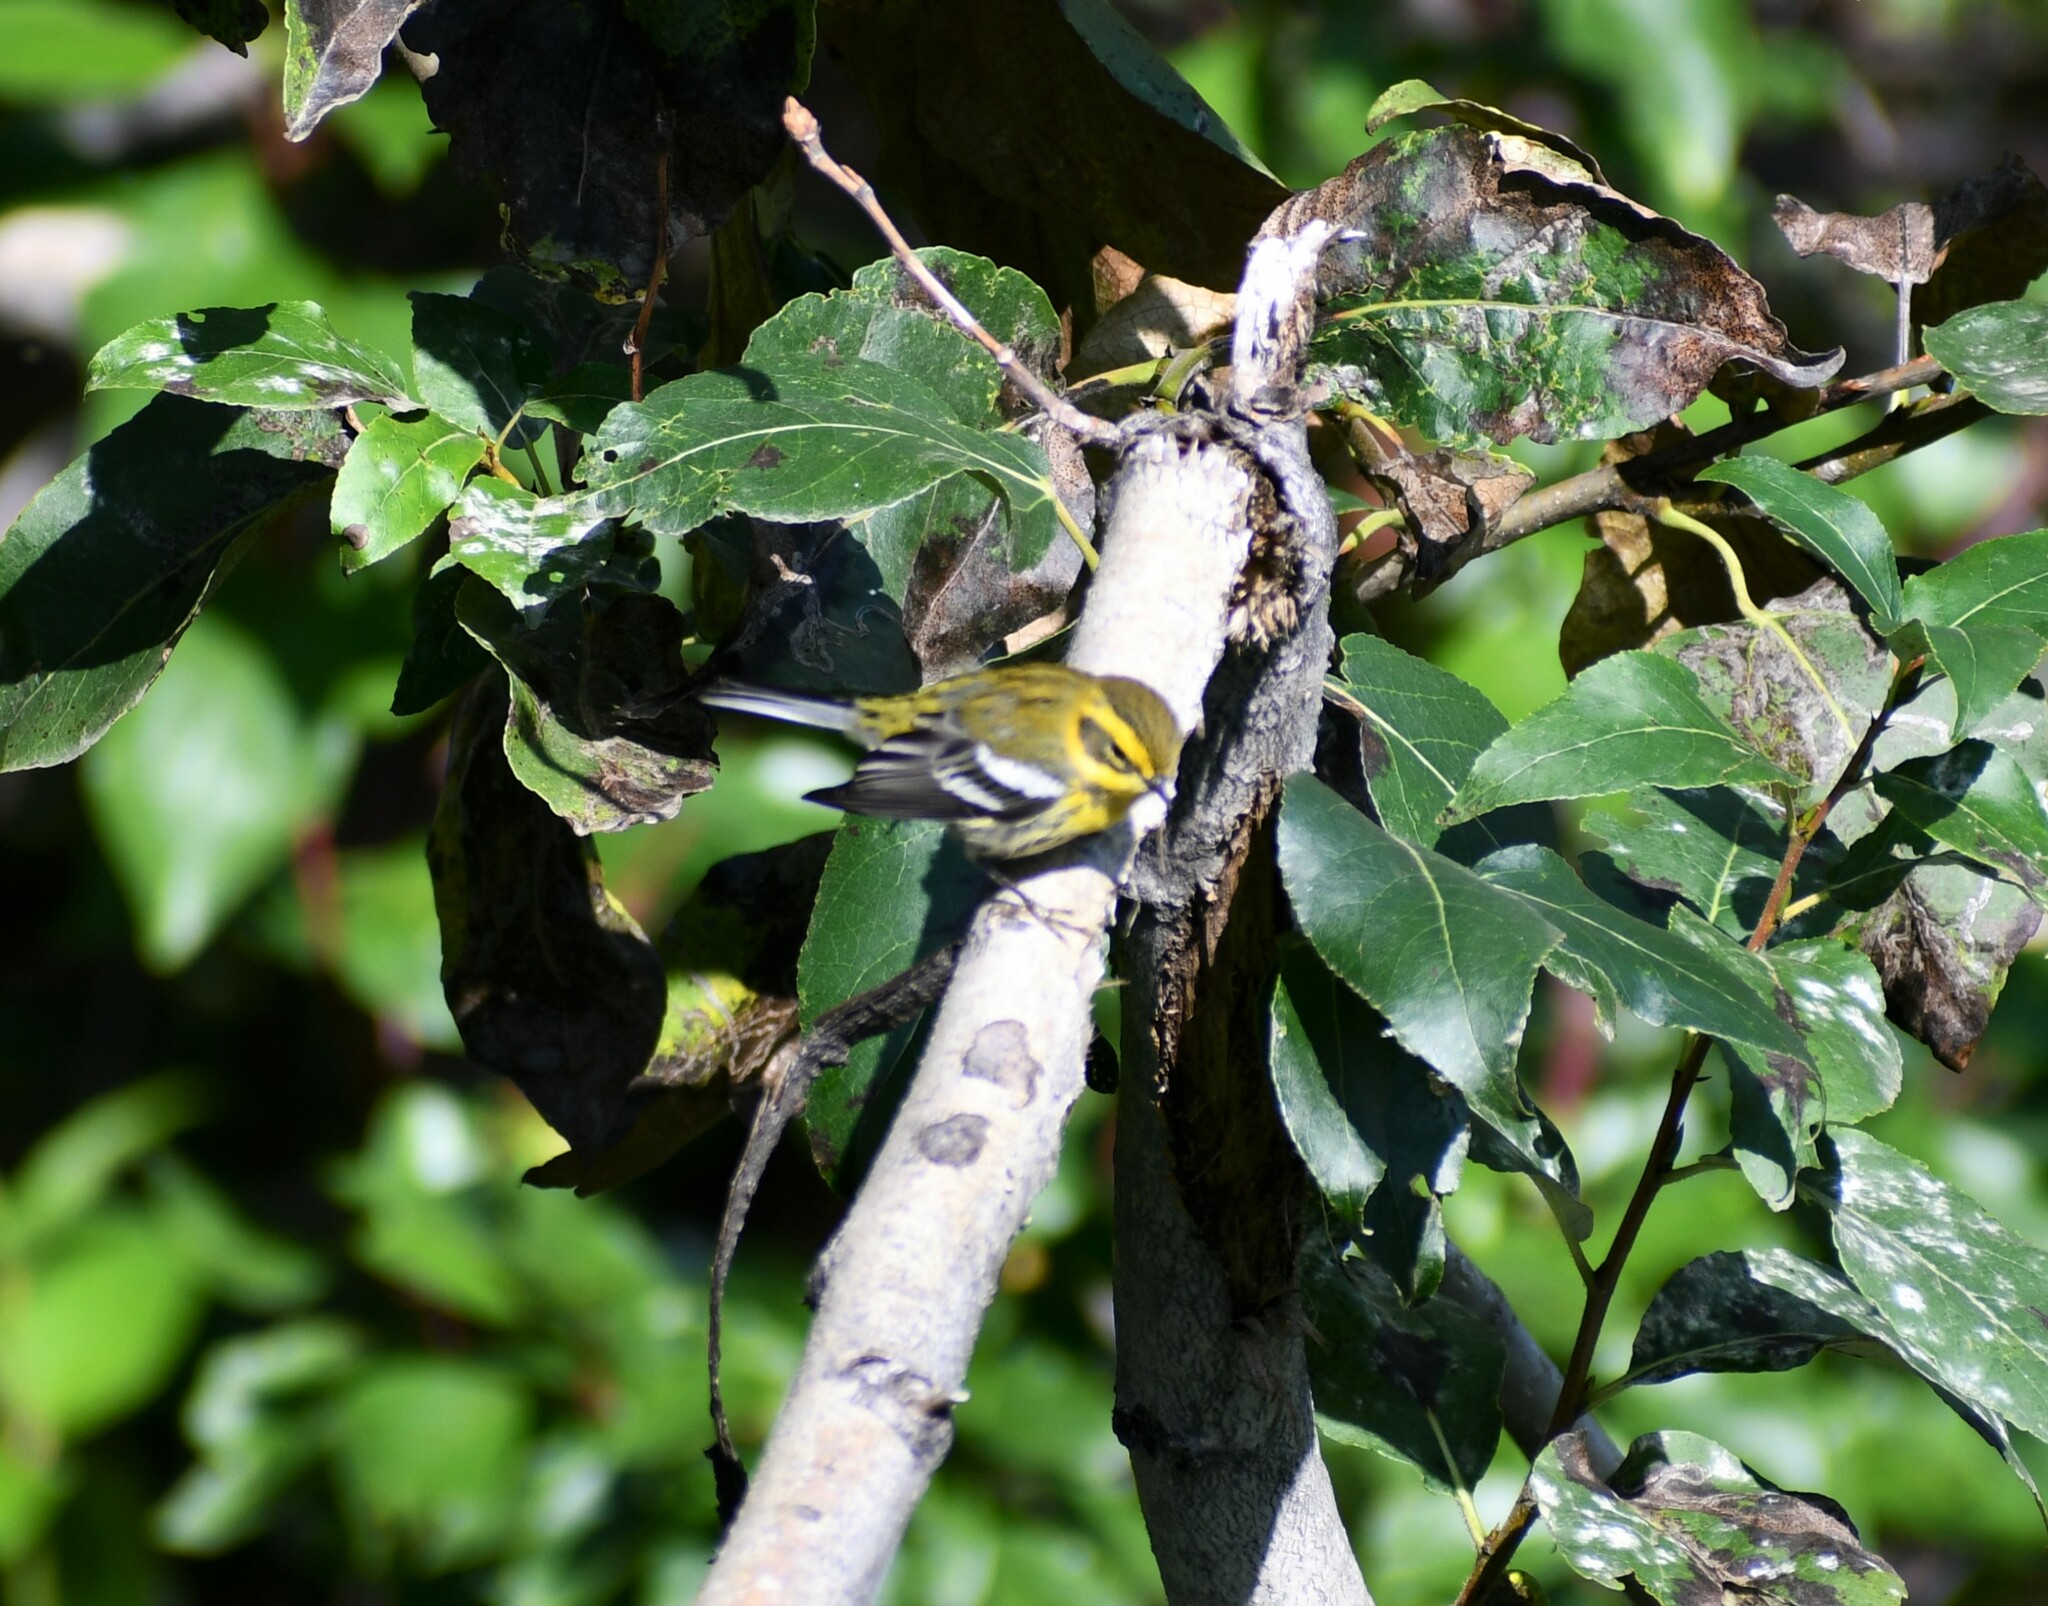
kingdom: Animalia
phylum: Chordata
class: Aves
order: Passeriformes
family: Parulidae
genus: Setophaga
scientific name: Setophaga townsendi
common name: Townsend's warbler
